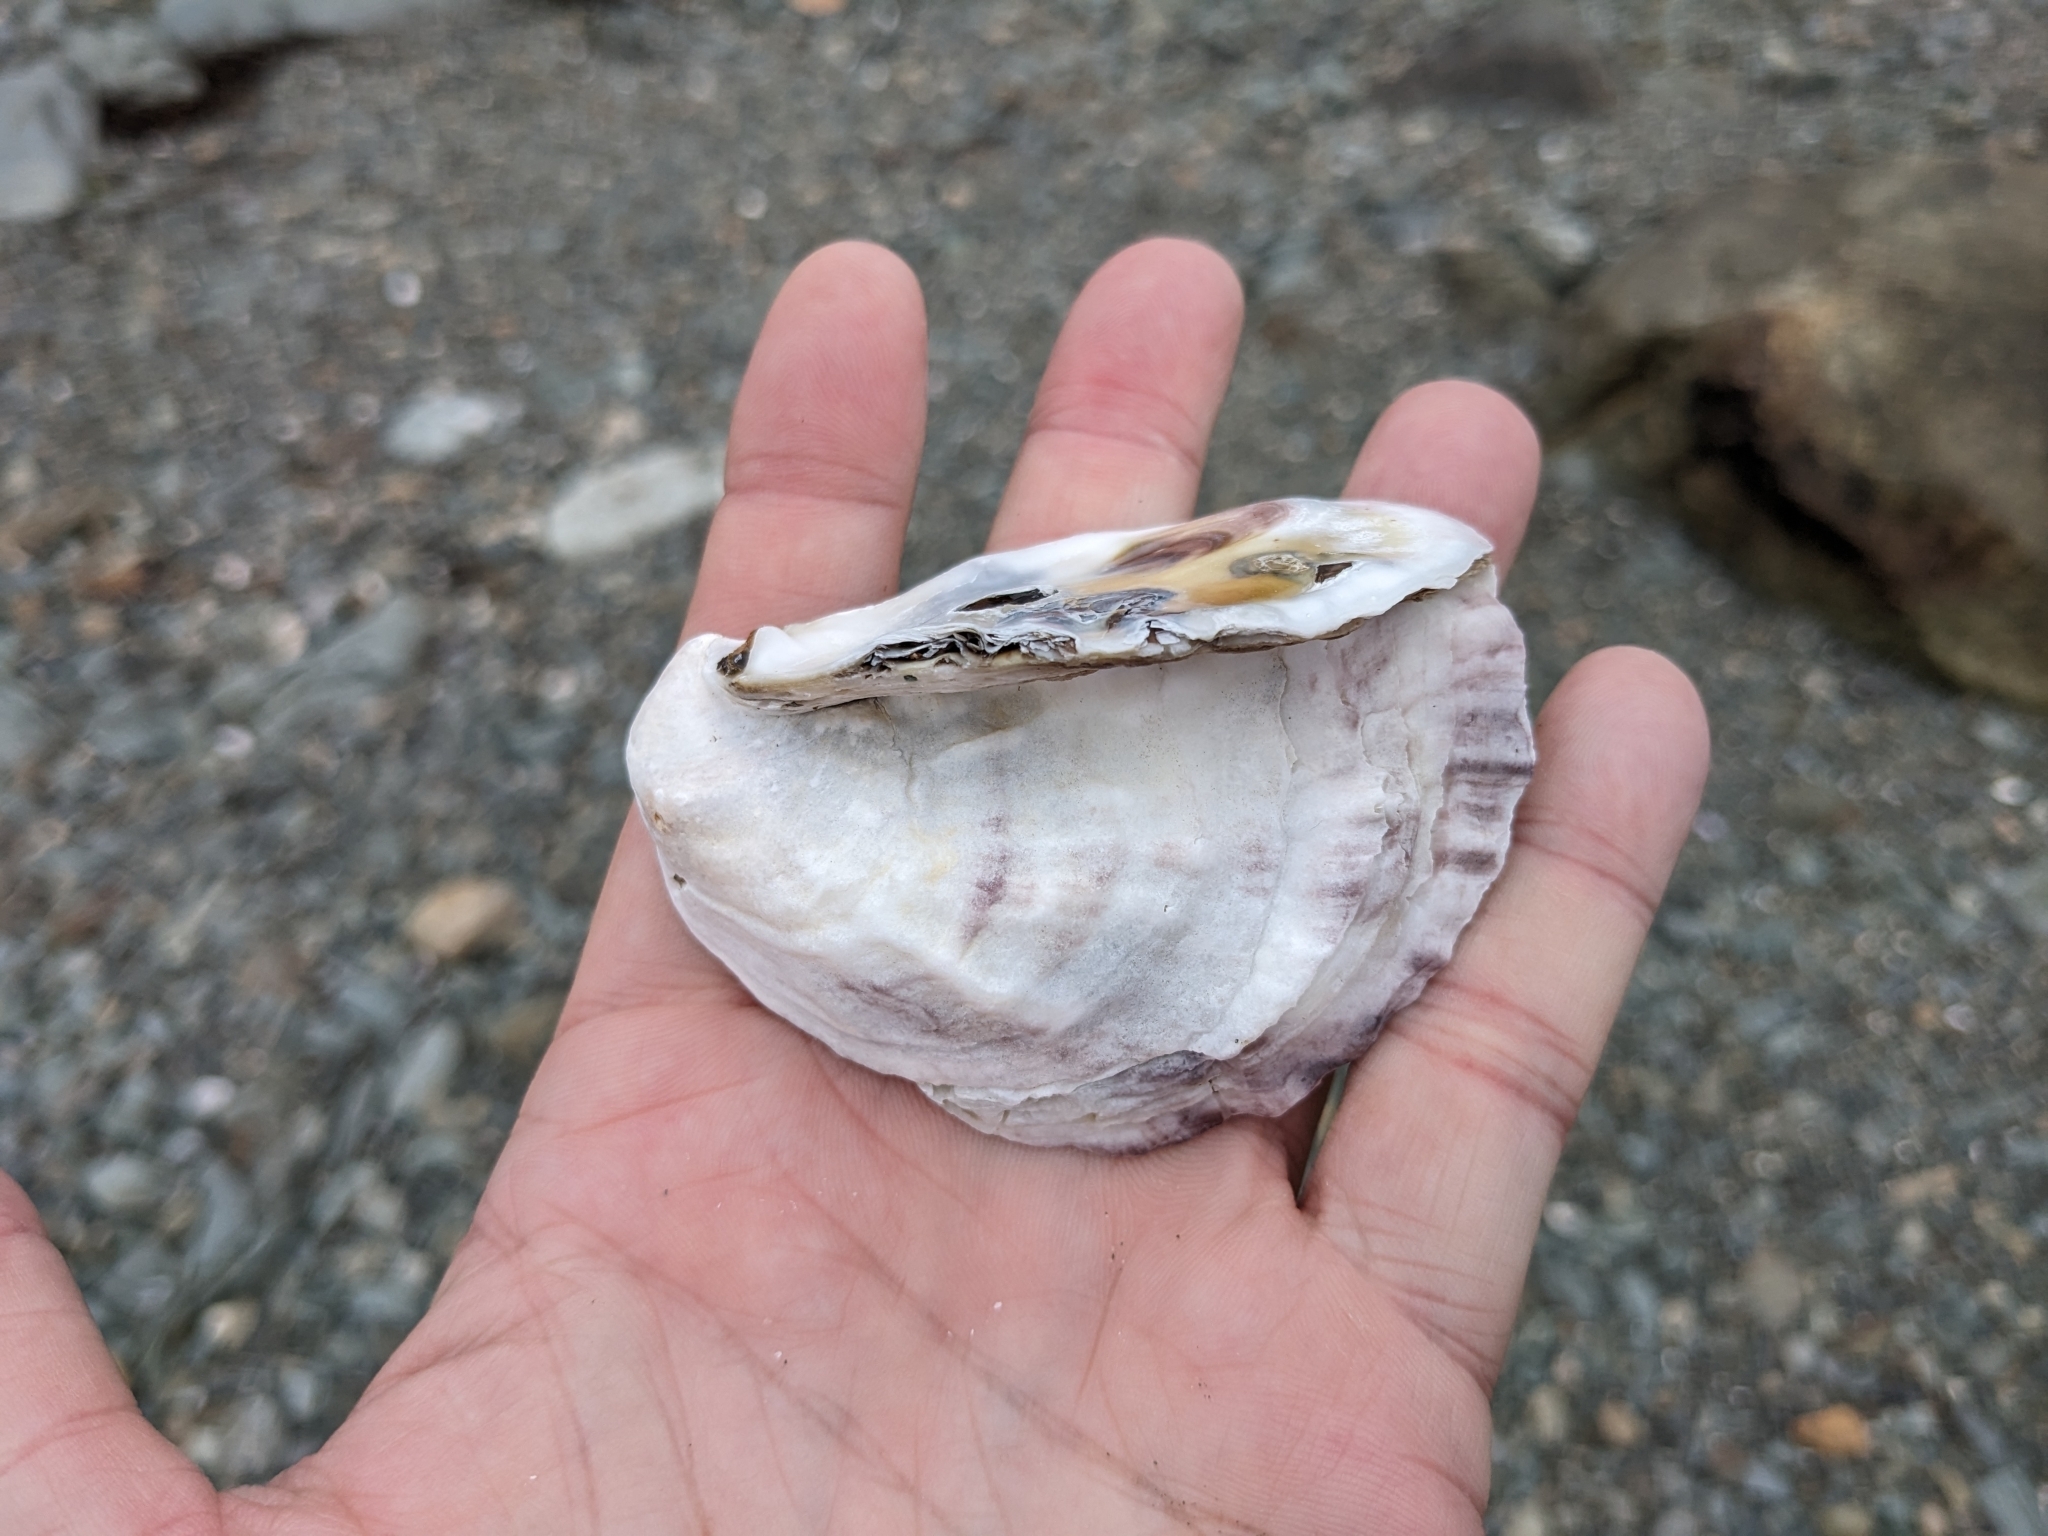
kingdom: Animalia
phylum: Mollusca
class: Bivalvia
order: Ostreida
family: Ostreidae
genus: Crassostrea
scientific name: Crassostrea virginica
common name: American oyster
